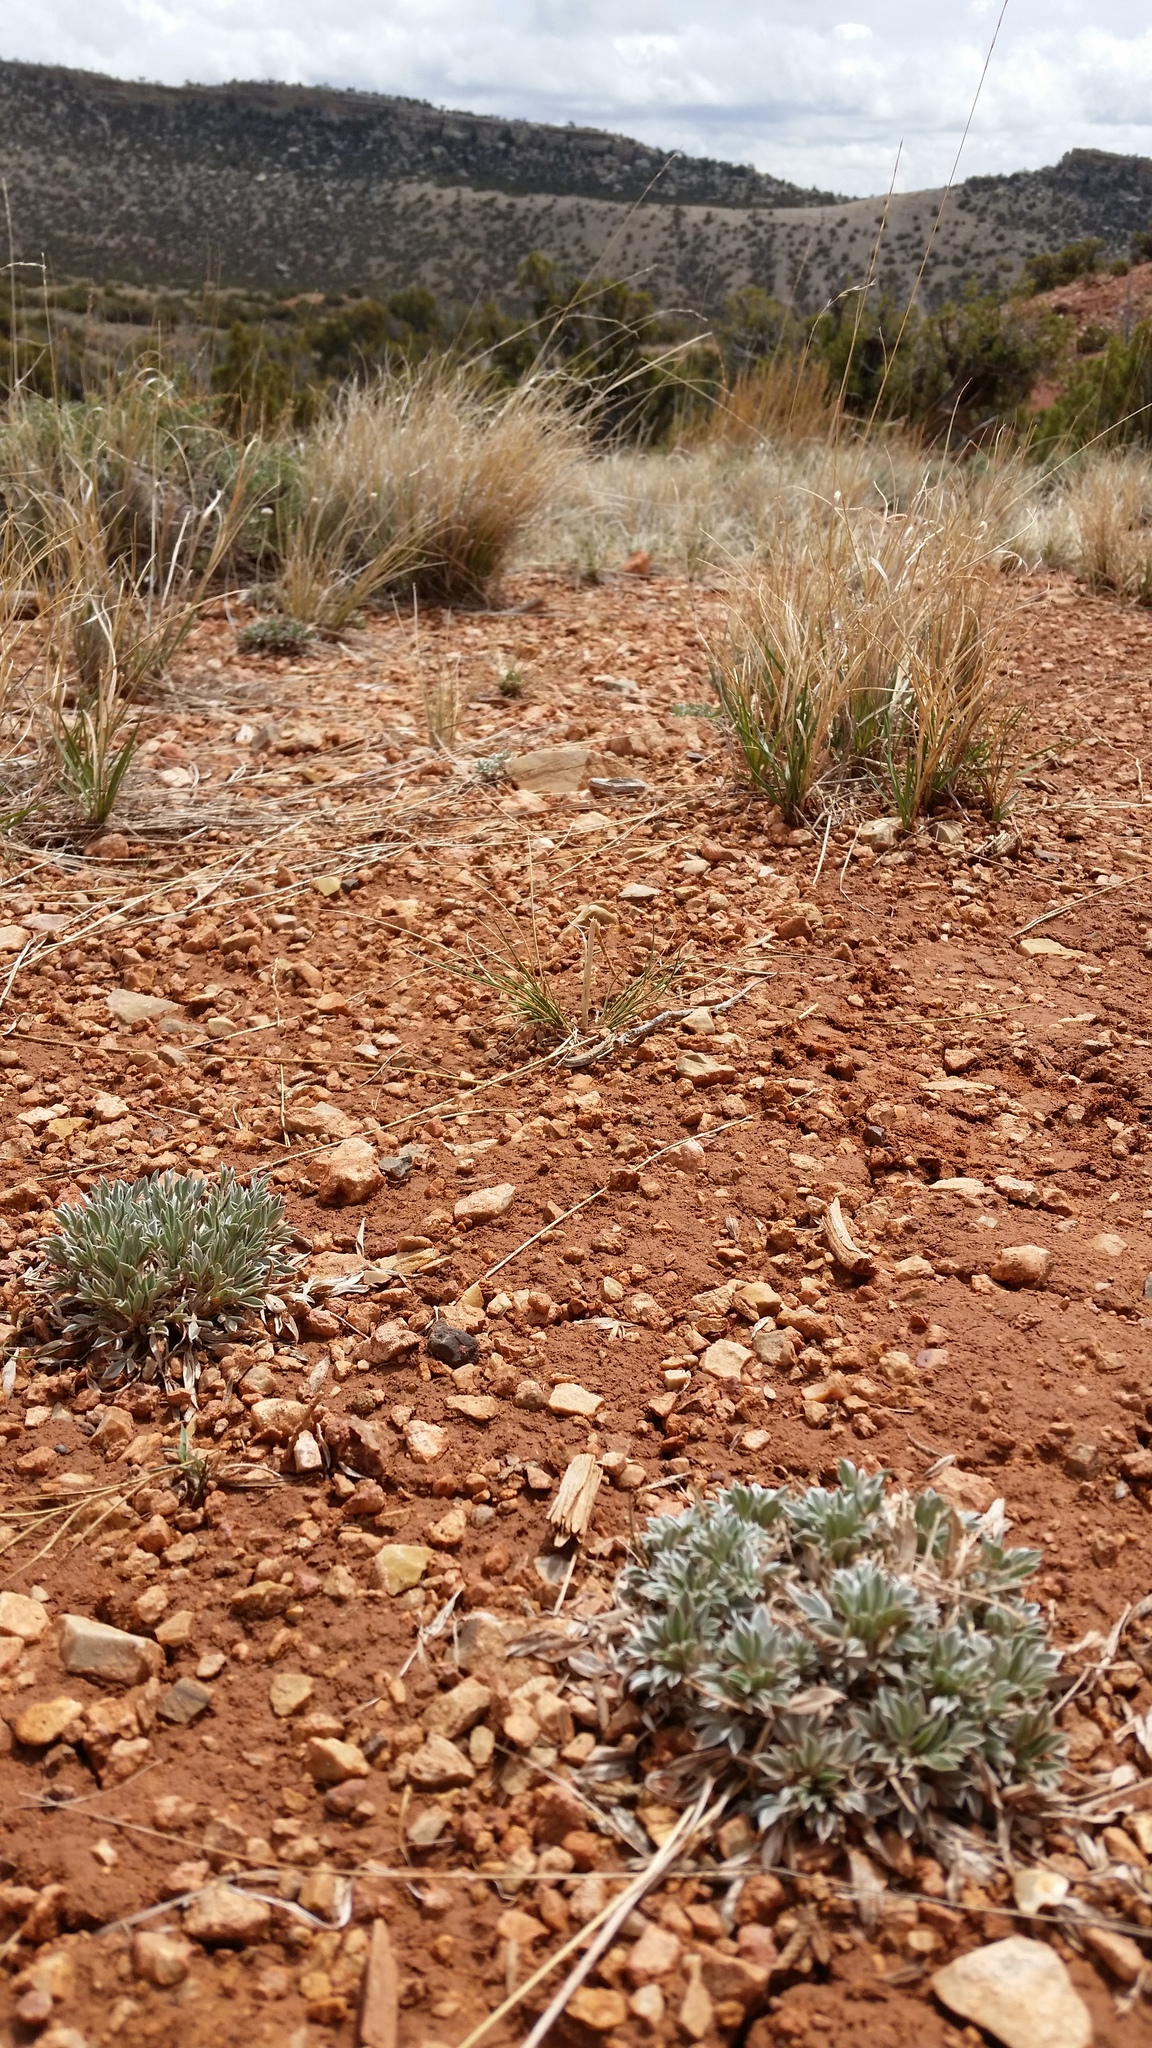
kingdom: Plantae
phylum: Tracheophyta
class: Magnoliopsida
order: Fabales
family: Fabaceae
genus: Astragalus
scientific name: Astragalus gilviflorus
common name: Cushion milk-vetch
